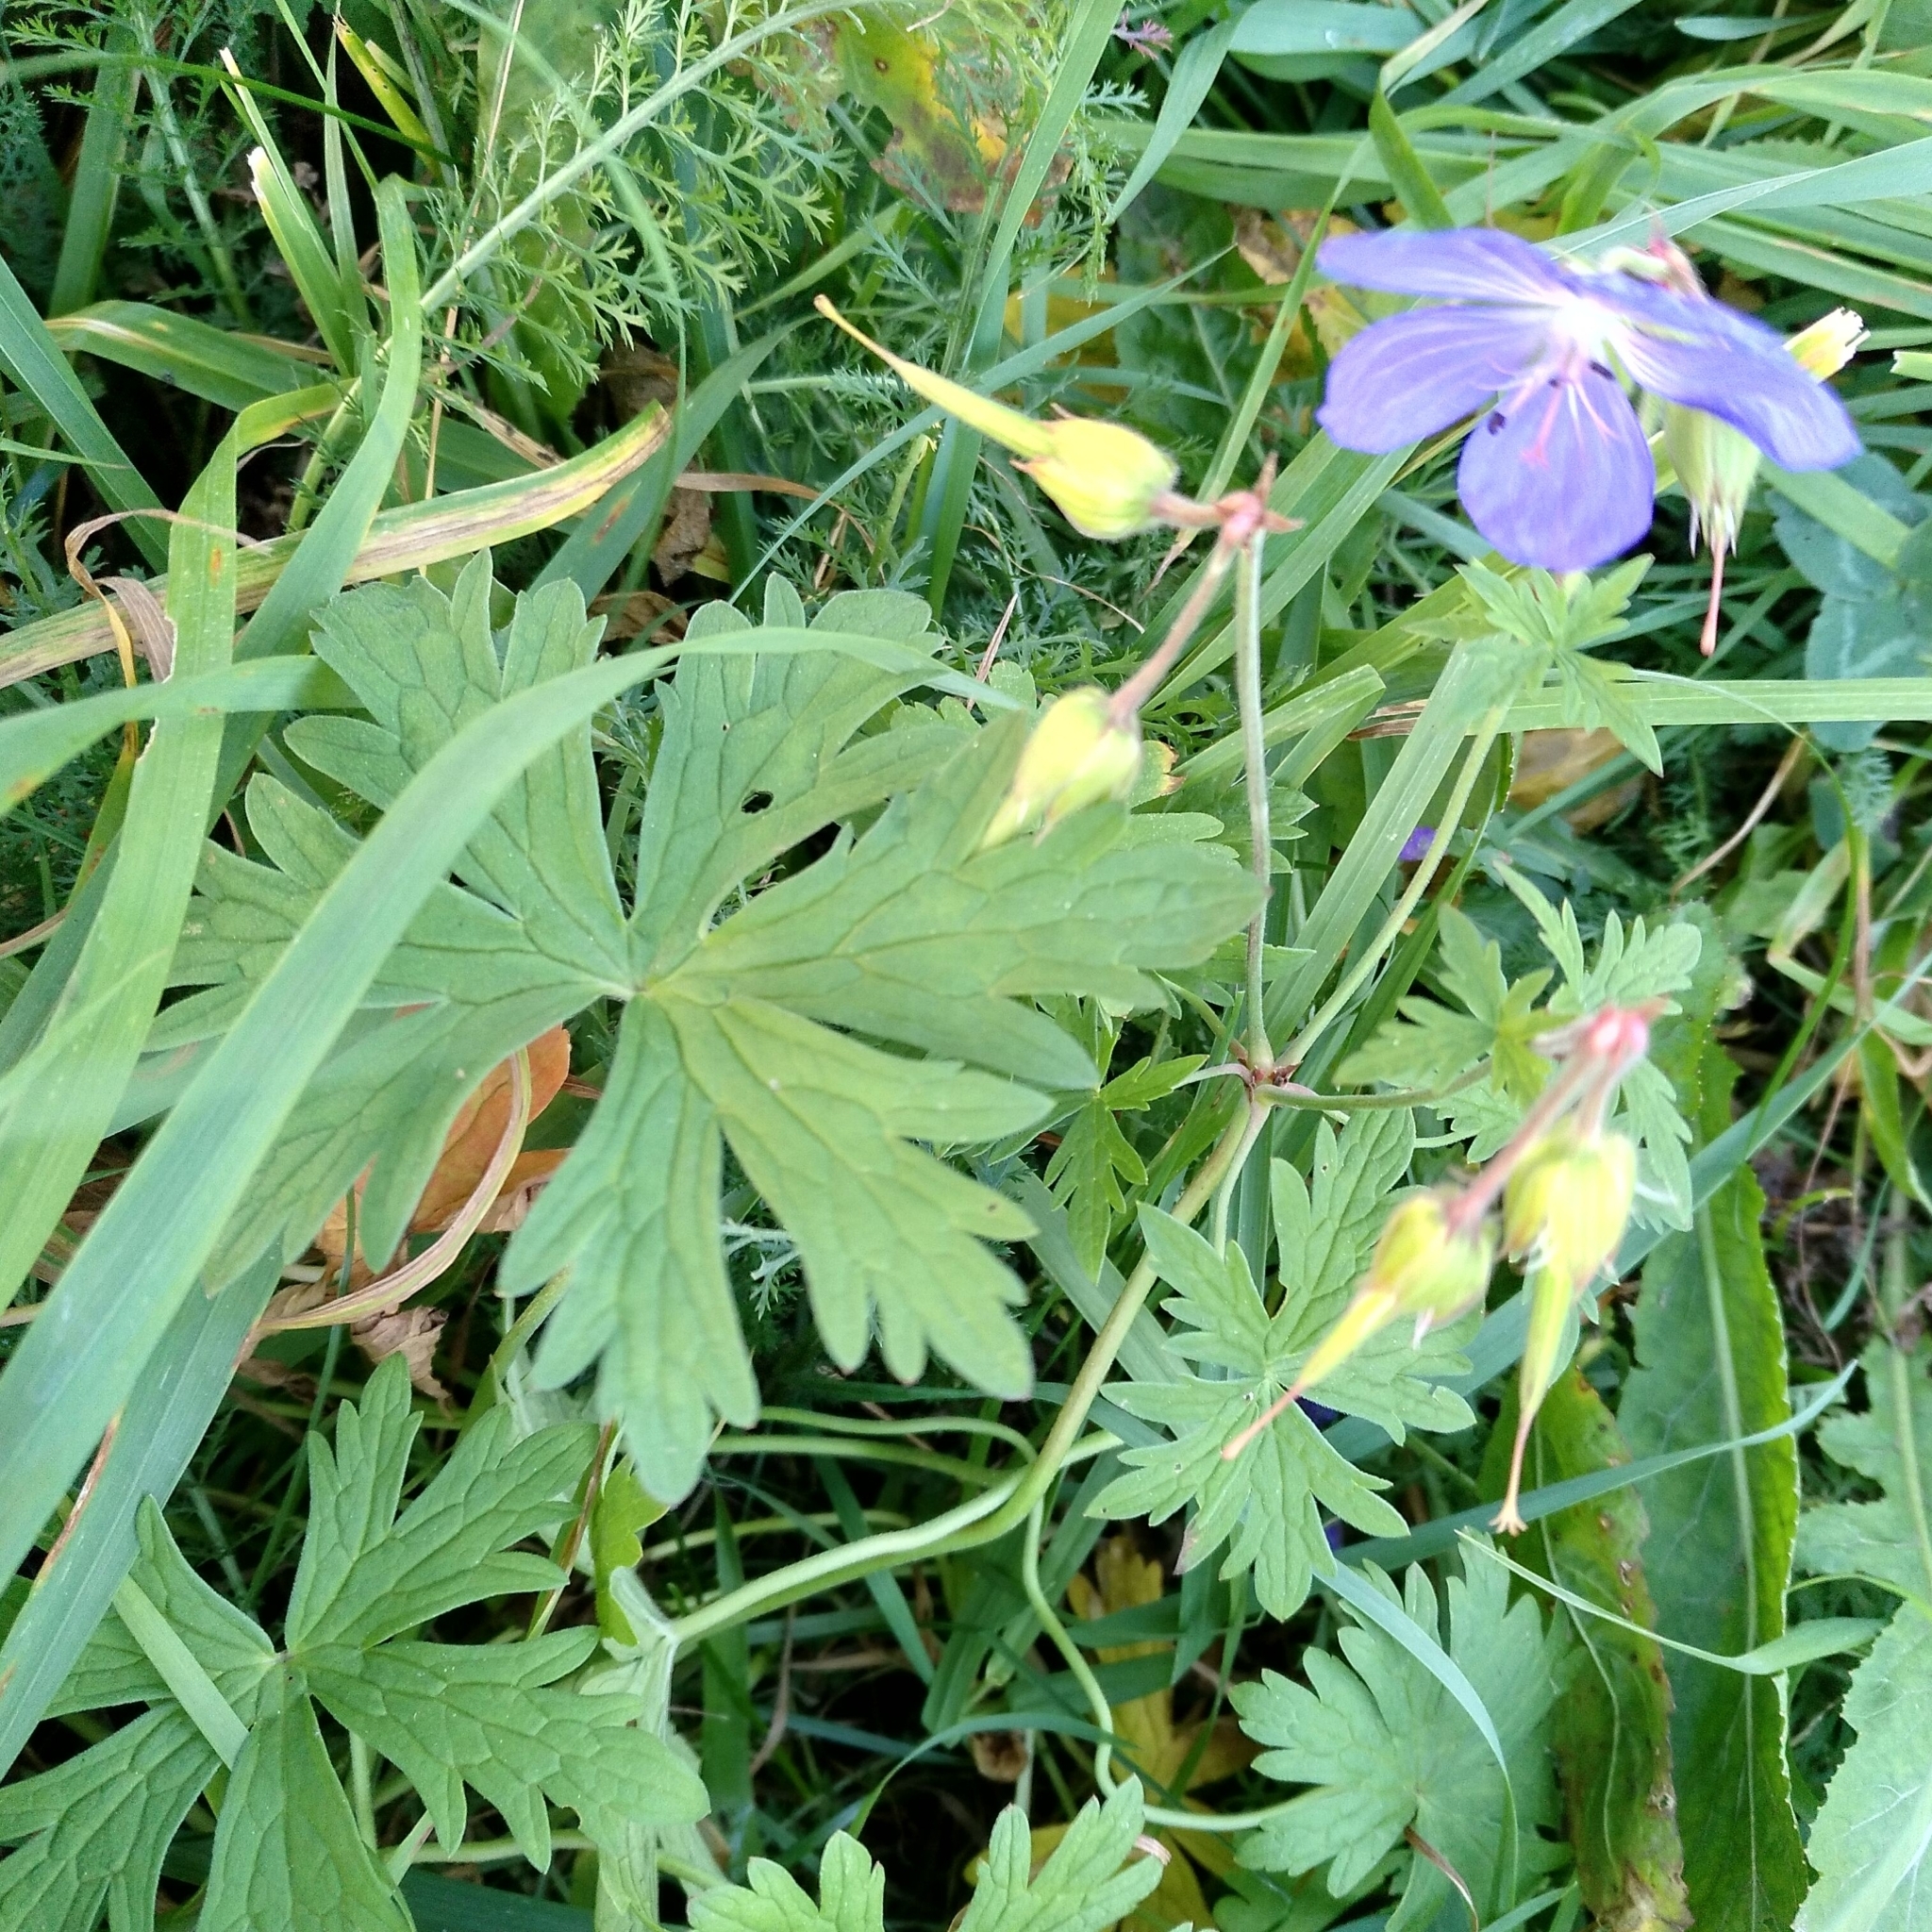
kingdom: Plantae
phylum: Tracheophyta
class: Magnoliopsida
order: Geraniales
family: Geraniaceae
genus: Geranium
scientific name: Geranium pratense
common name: Meadow crane's-bill
